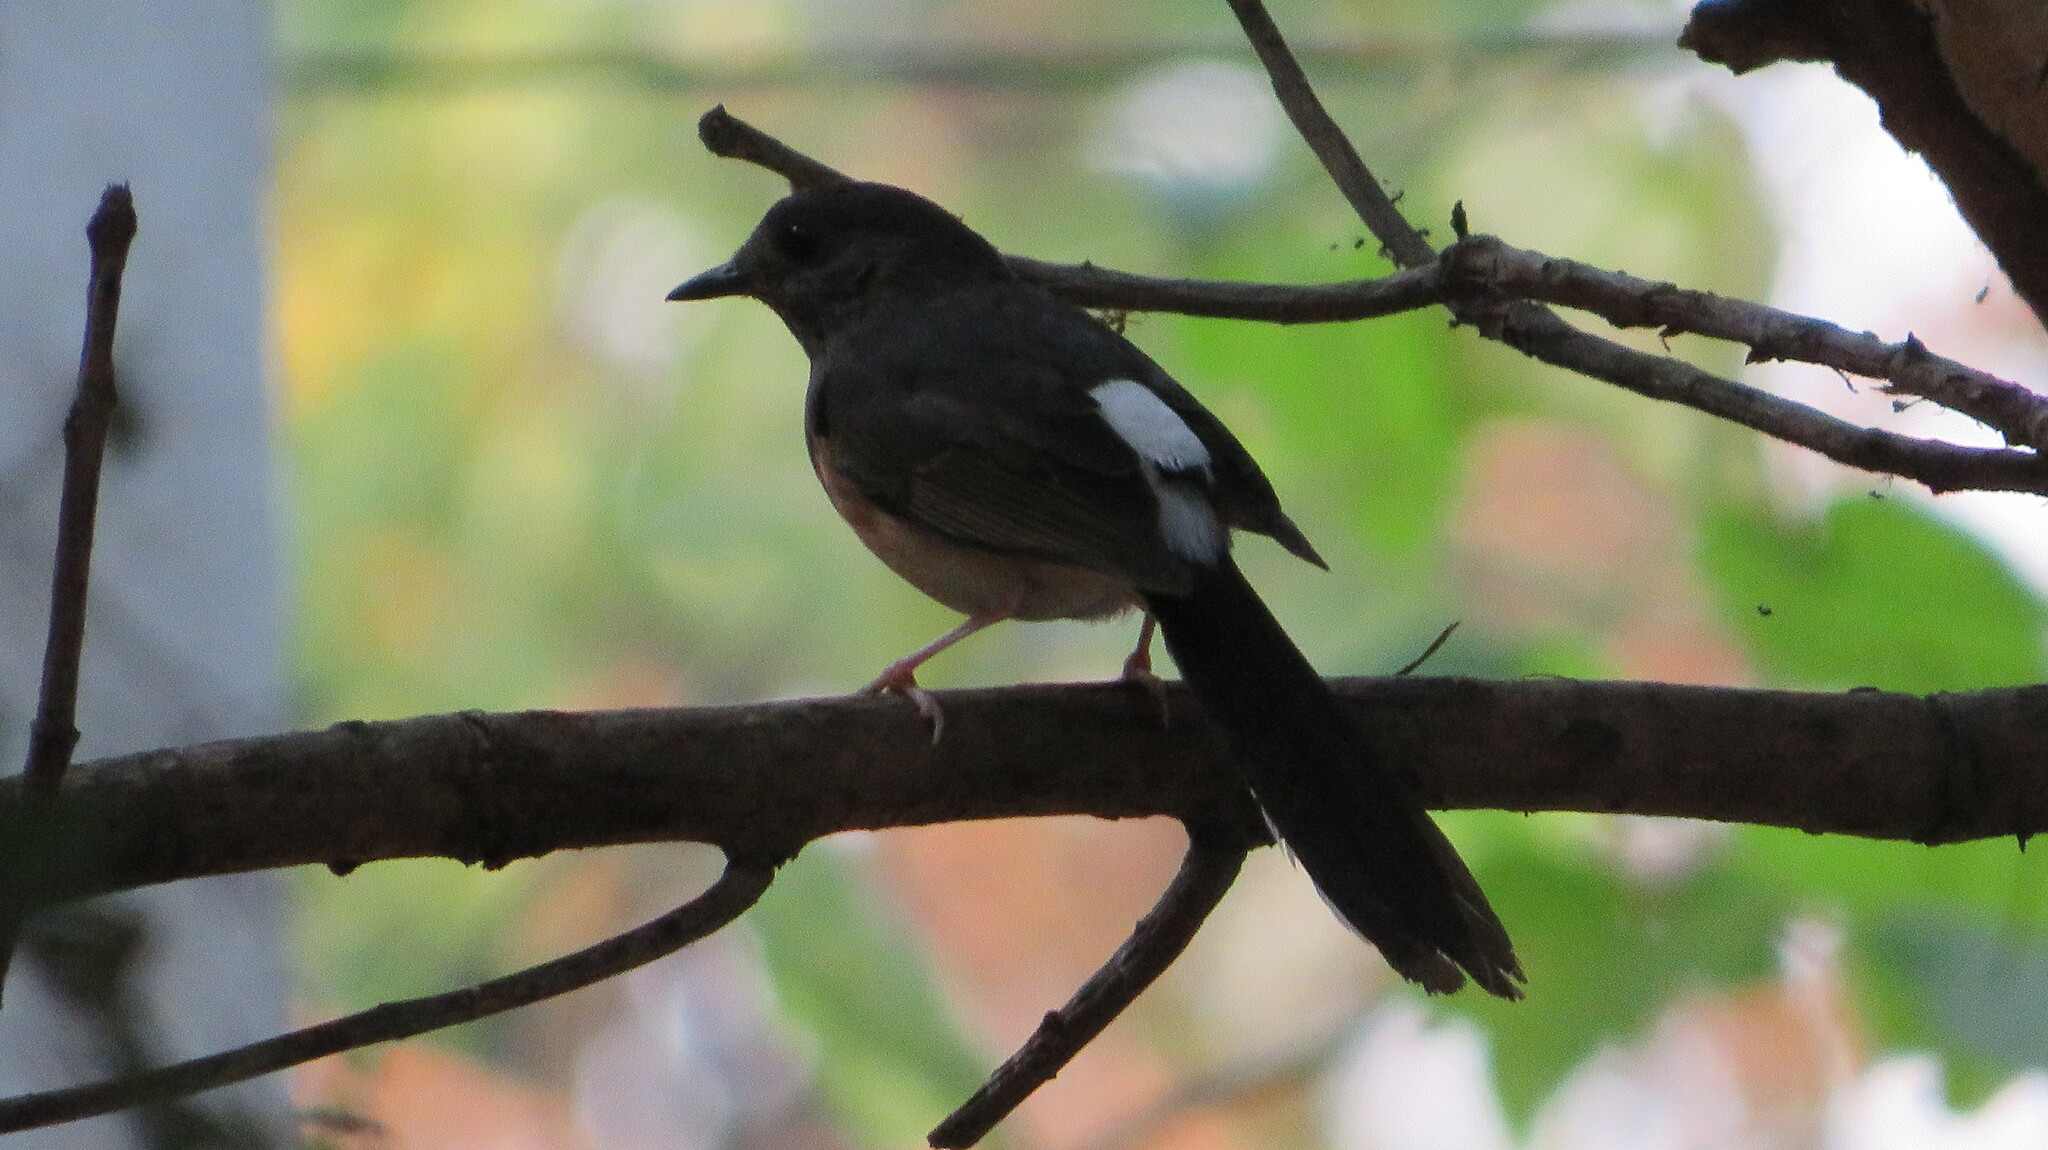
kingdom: Animalia
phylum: Chordata
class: Aves
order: Passeriformes
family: Muscicapidae
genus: Copsychus
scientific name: Copsychus malabaricus
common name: White-rumped shama
